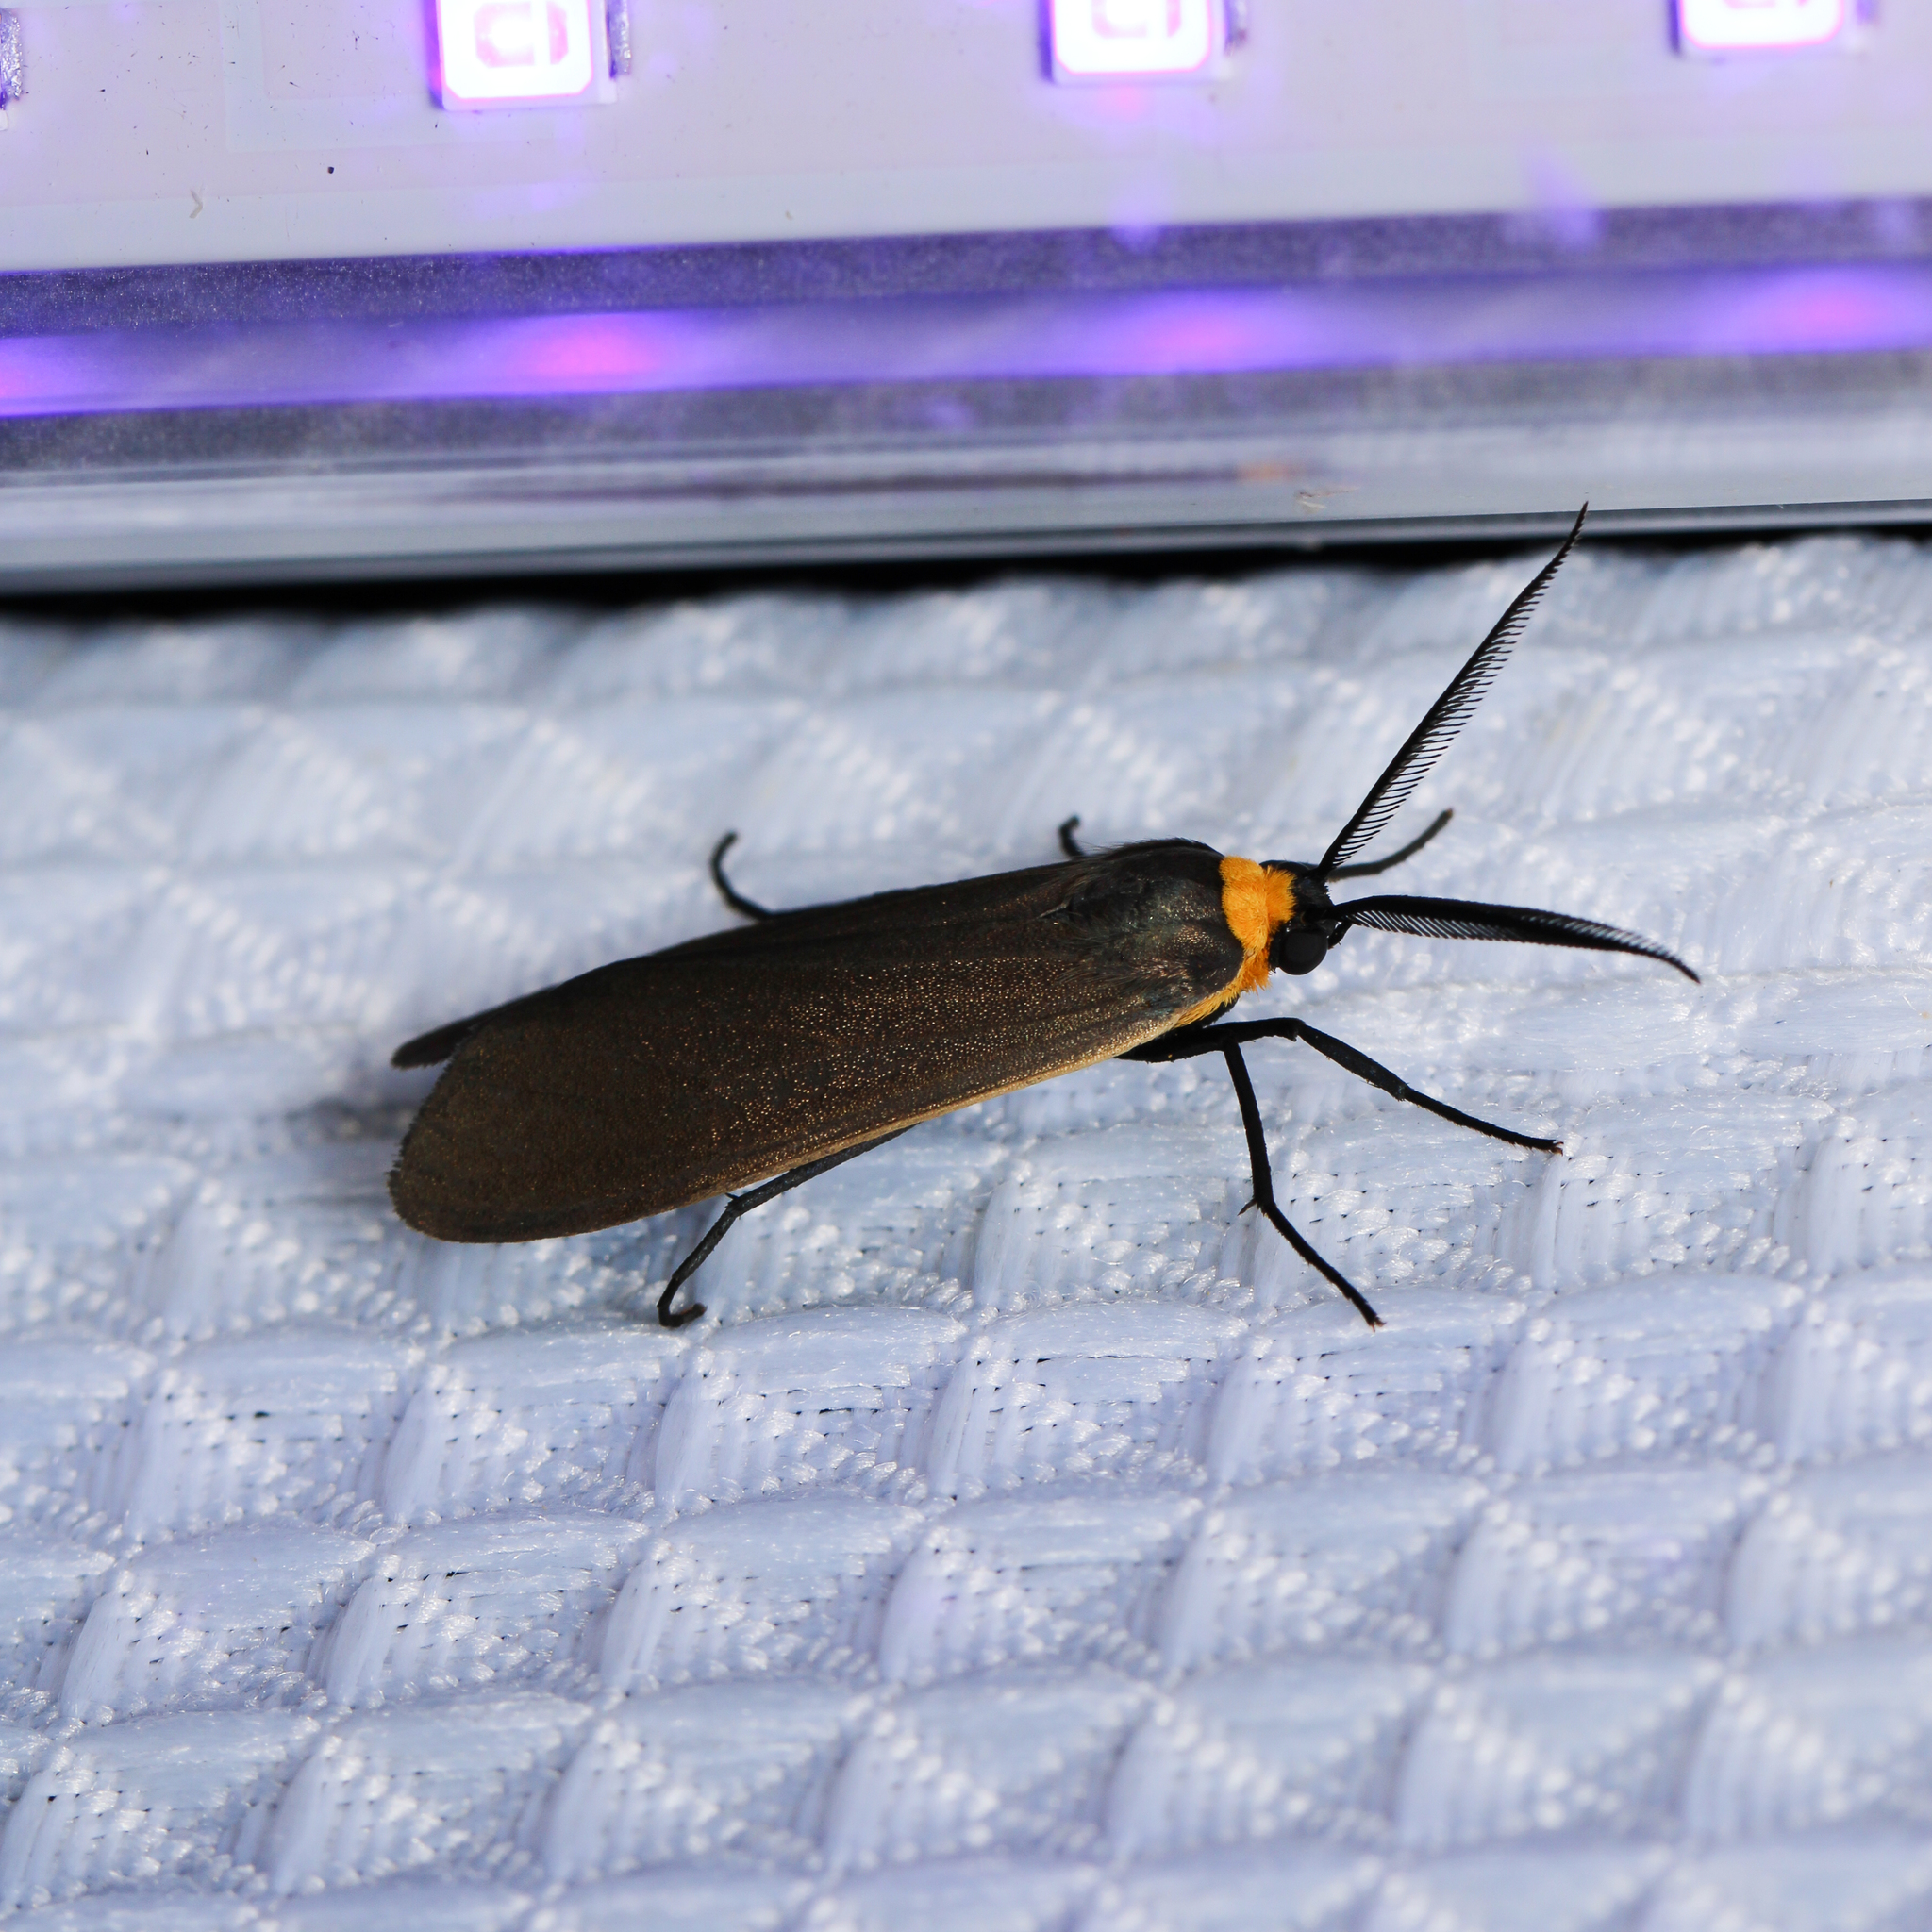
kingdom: Animalia
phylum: Arthropoda
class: Insecta
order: Lepidoptera
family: Erebidae
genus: Cisseps
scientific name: Cisseps fulvicollis
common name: Yellow-collared scape moth
